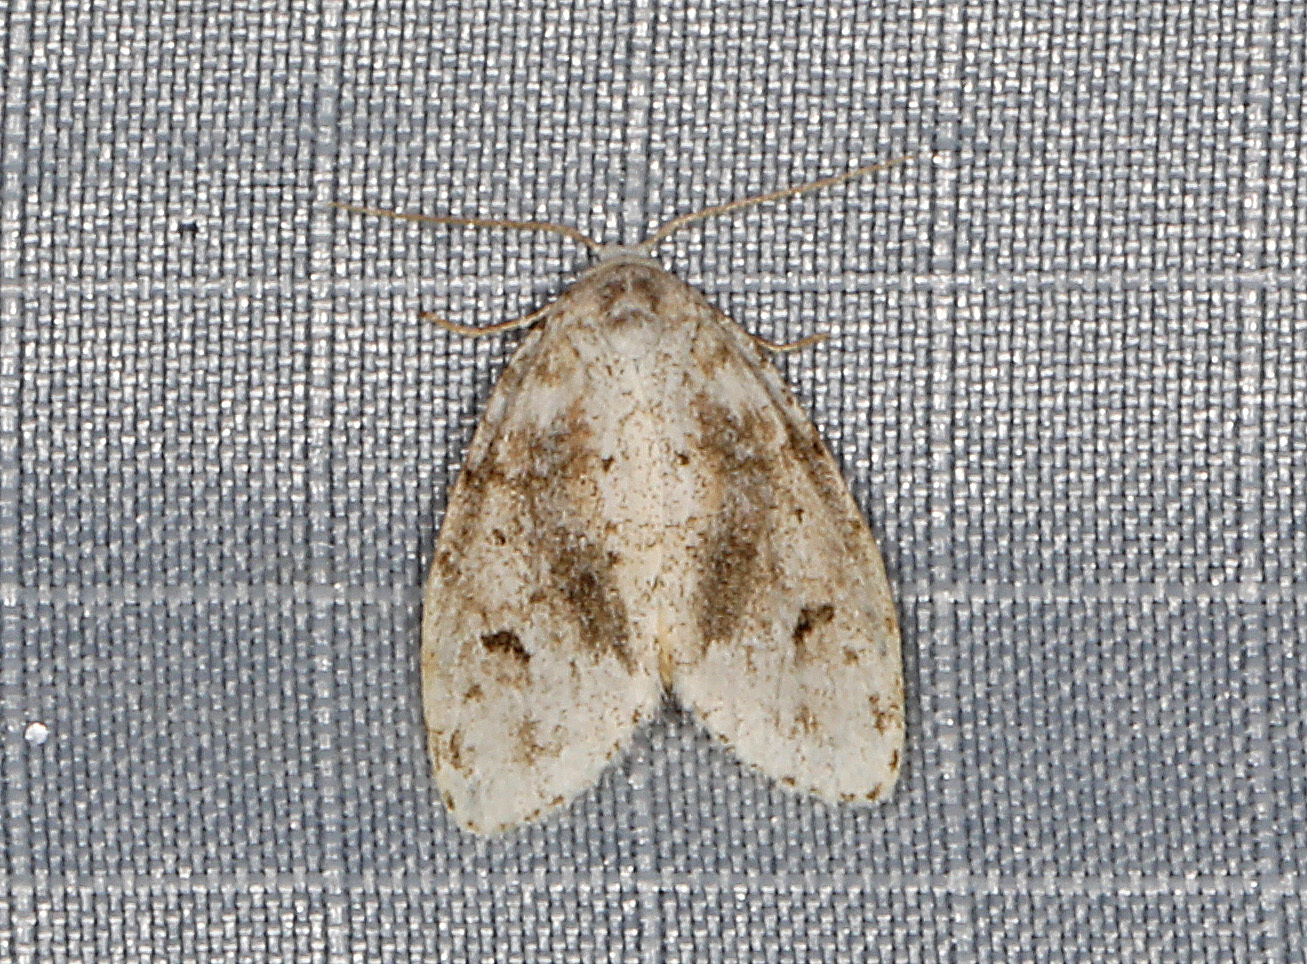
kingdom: Animalia
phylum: Arthropoda
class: Insecta
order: Lepidoptera
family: Erebidae
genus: Clemensia
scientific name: Clemensia albata
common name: Little white lichen moth
